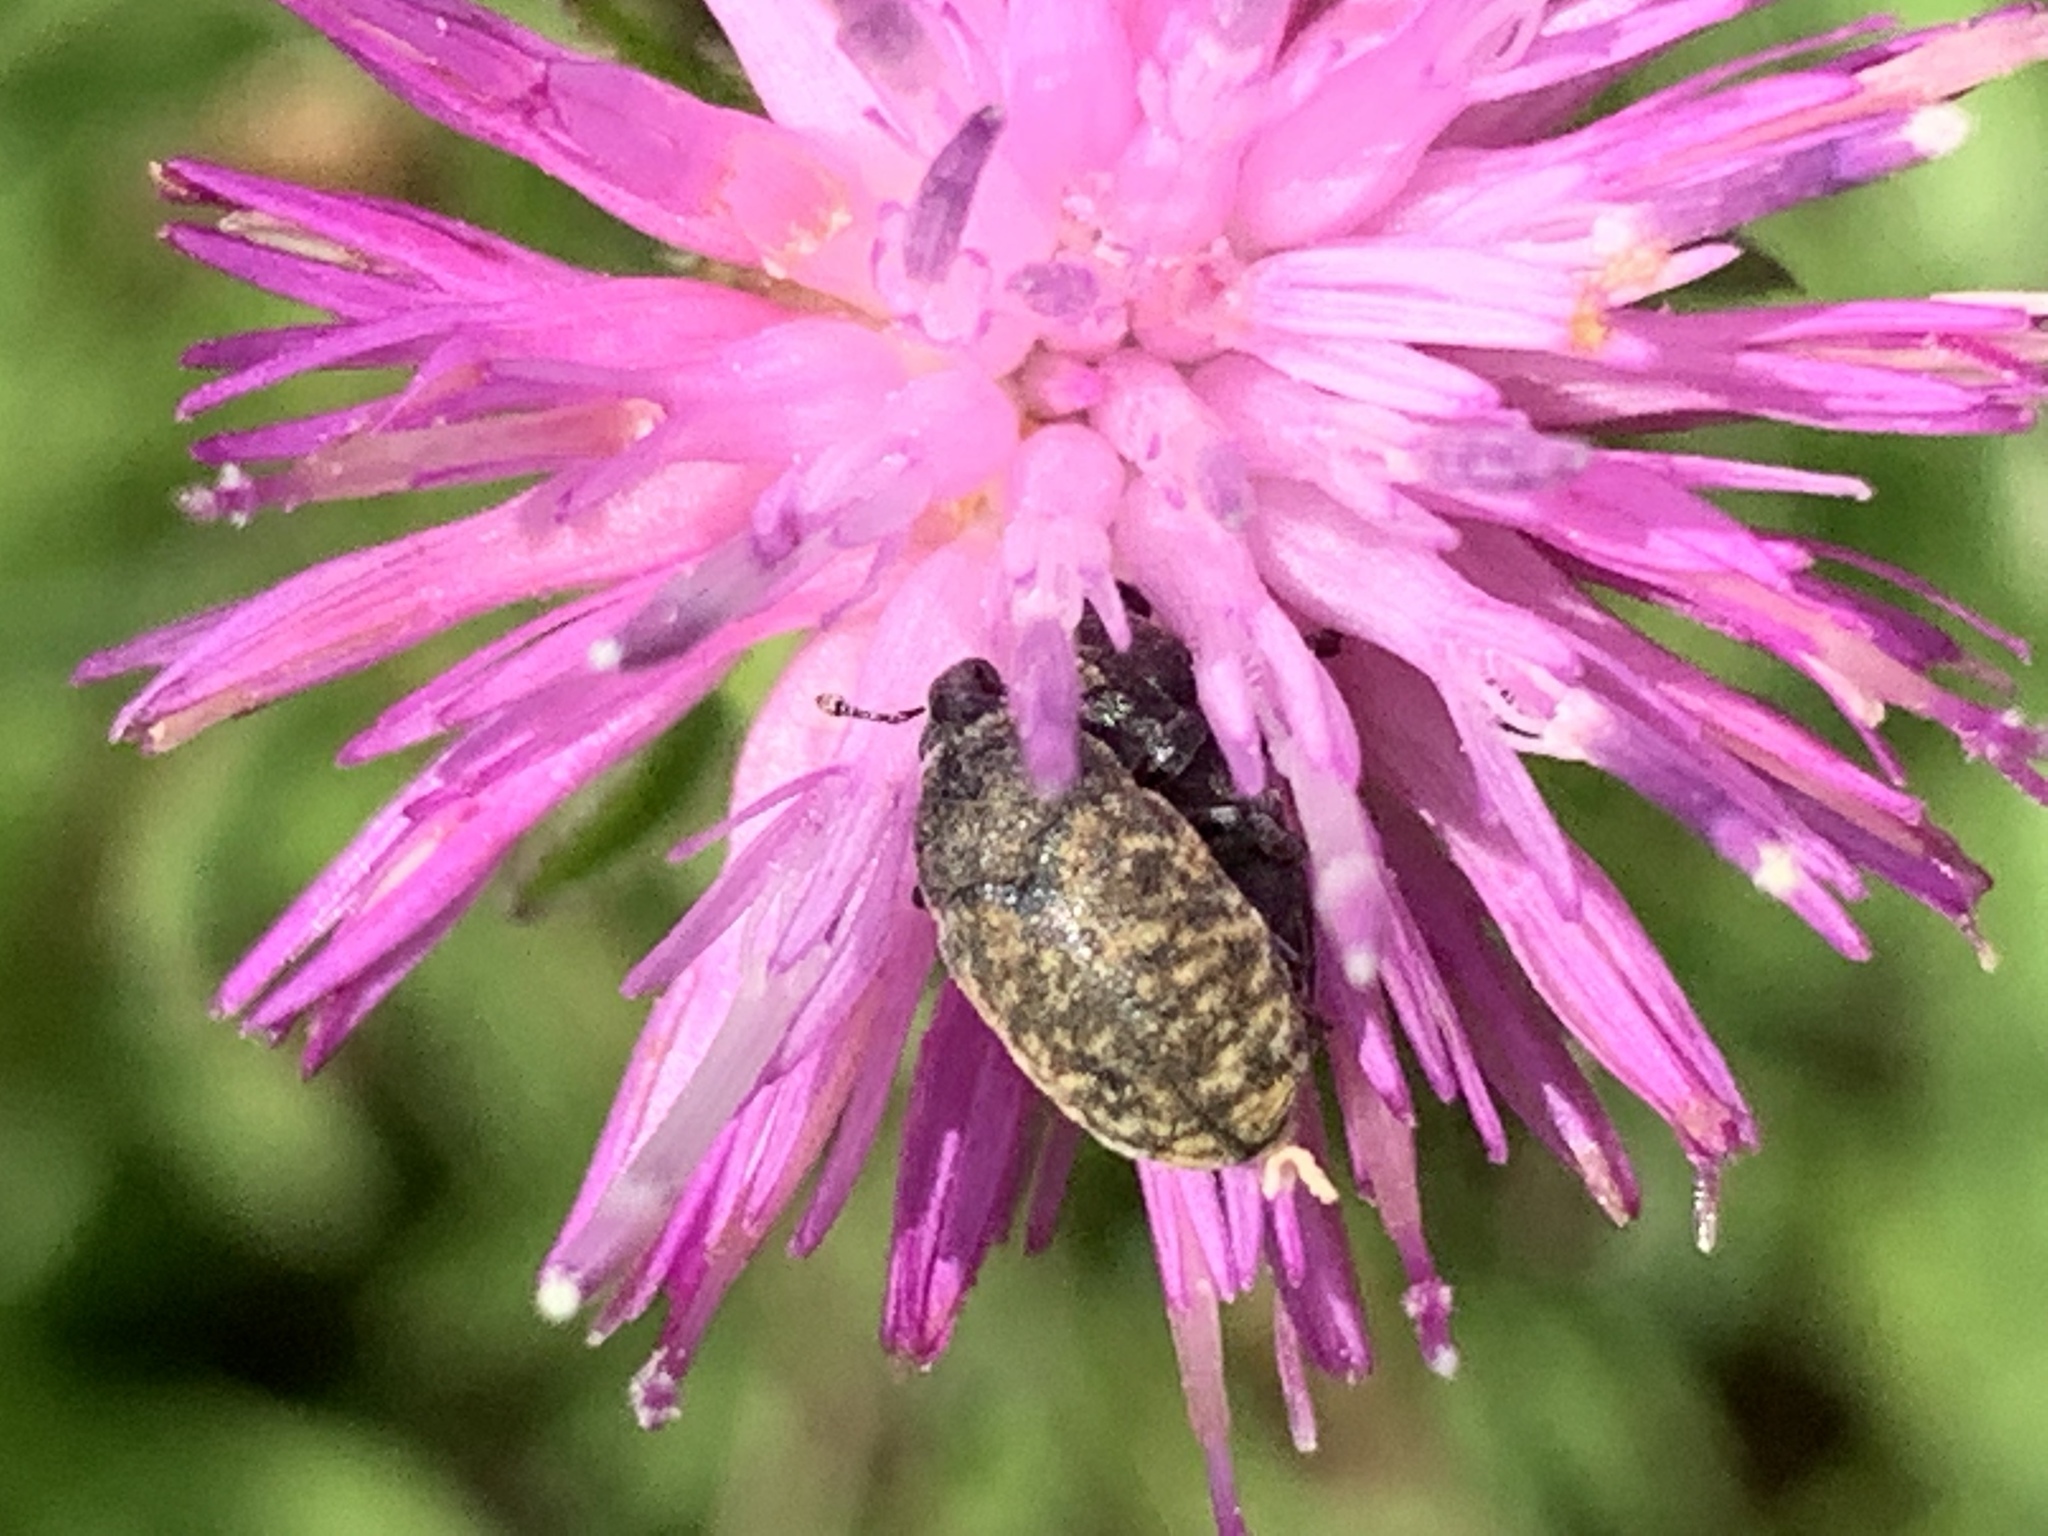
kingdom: Animalia
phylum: Arthropoda
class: Insecta
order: Coleoptera
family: Curculionidae
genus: Larinus
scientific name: Larinus obtusus
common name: Weevil
